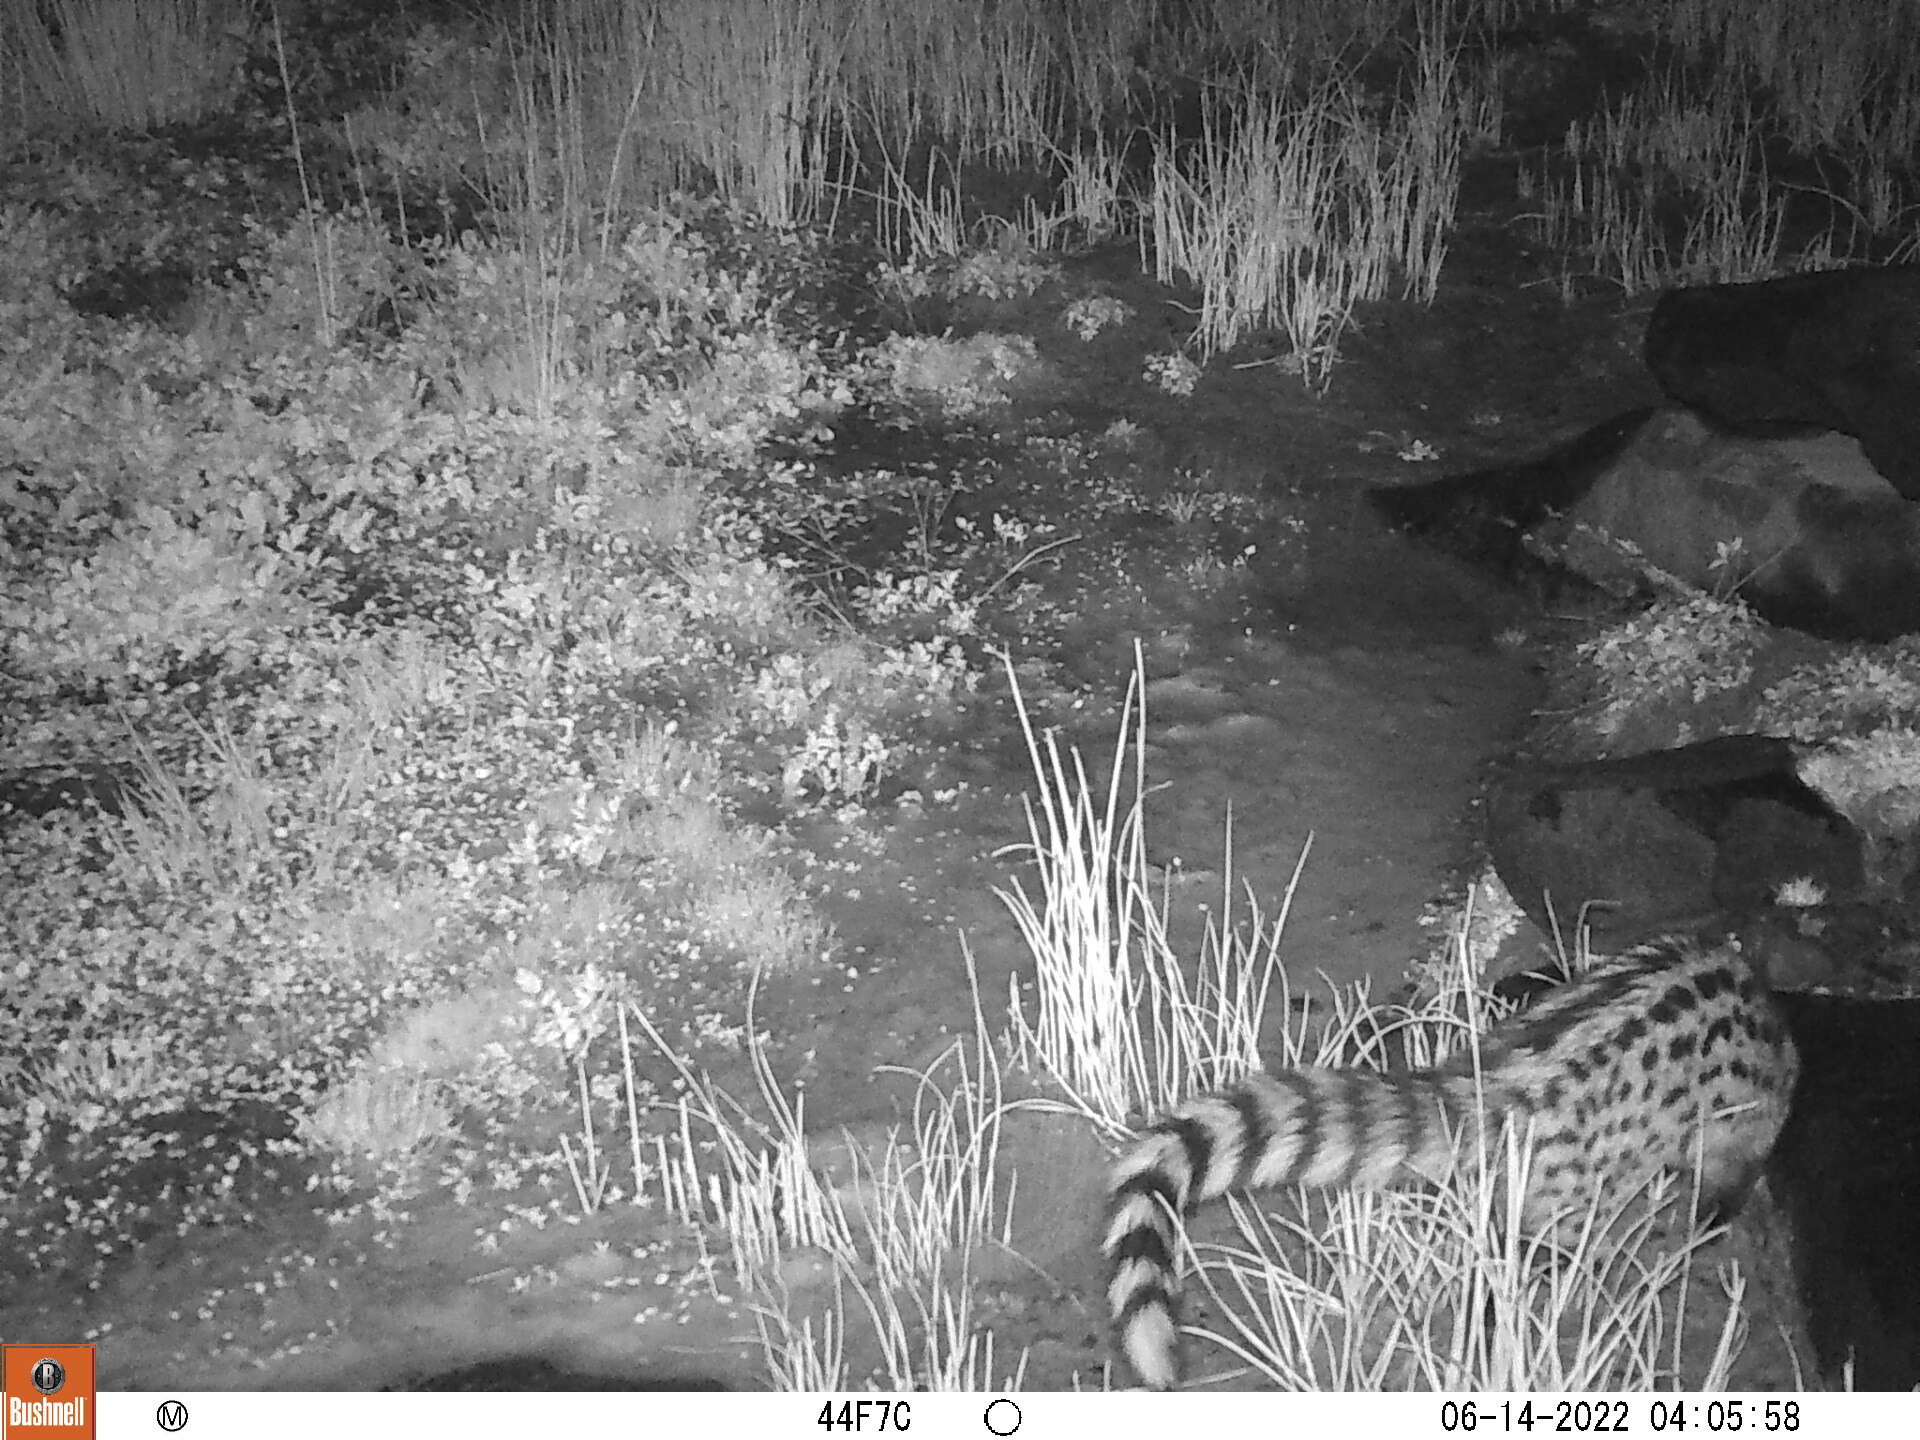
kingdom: Animalia
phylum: Chordata
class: Mammalia
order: Carnivora
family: Viverridae
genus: Genetta
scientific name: Genetta genetta
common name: Common genet
